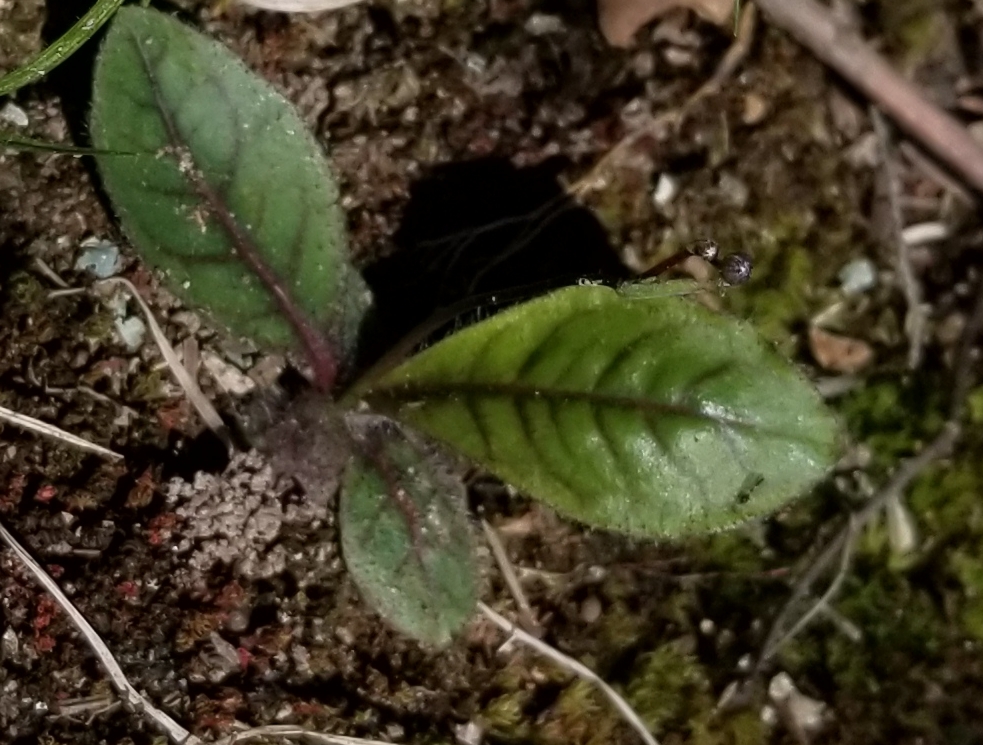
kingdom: Plantae
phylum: Tracheophyta
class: Magnoliopsida
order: Asterales
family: Asteraceae
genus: Hieracium
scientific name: Hieracium venosum
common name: Rattlesnake hawkweed
